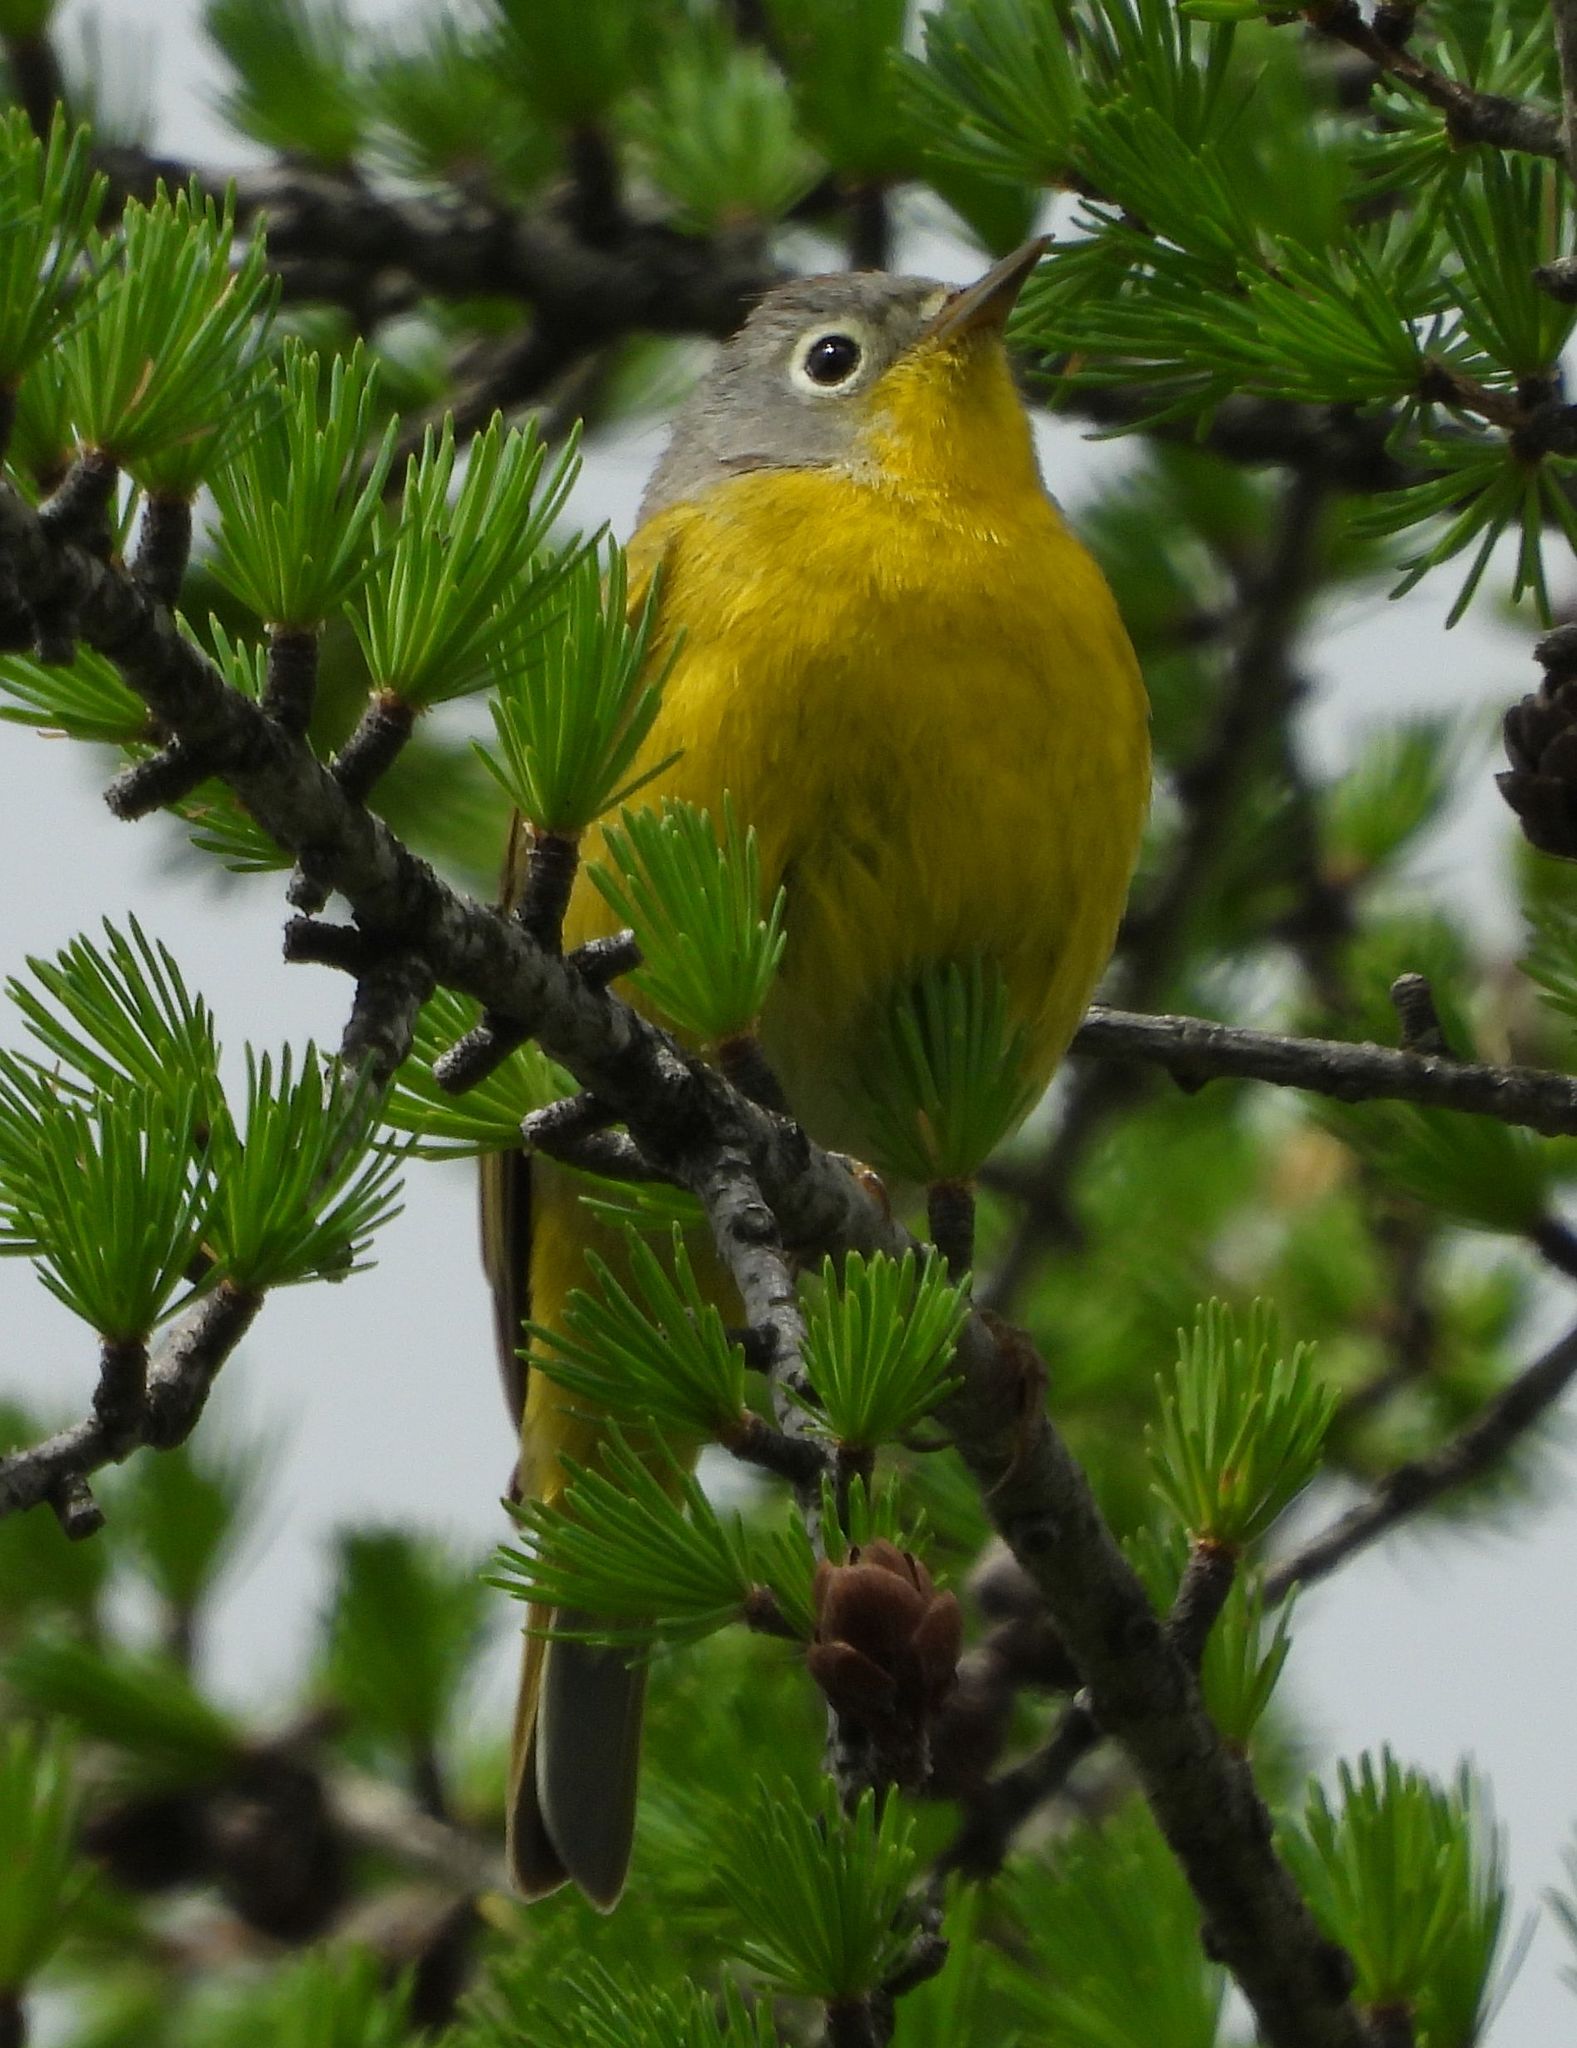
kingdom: Animalia
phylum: Chordata
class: Aves
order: Passeriformes
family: Parulidae
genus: Leiothlypis
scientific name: Leiothlypis ruficapilla
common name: Nashville warbler
